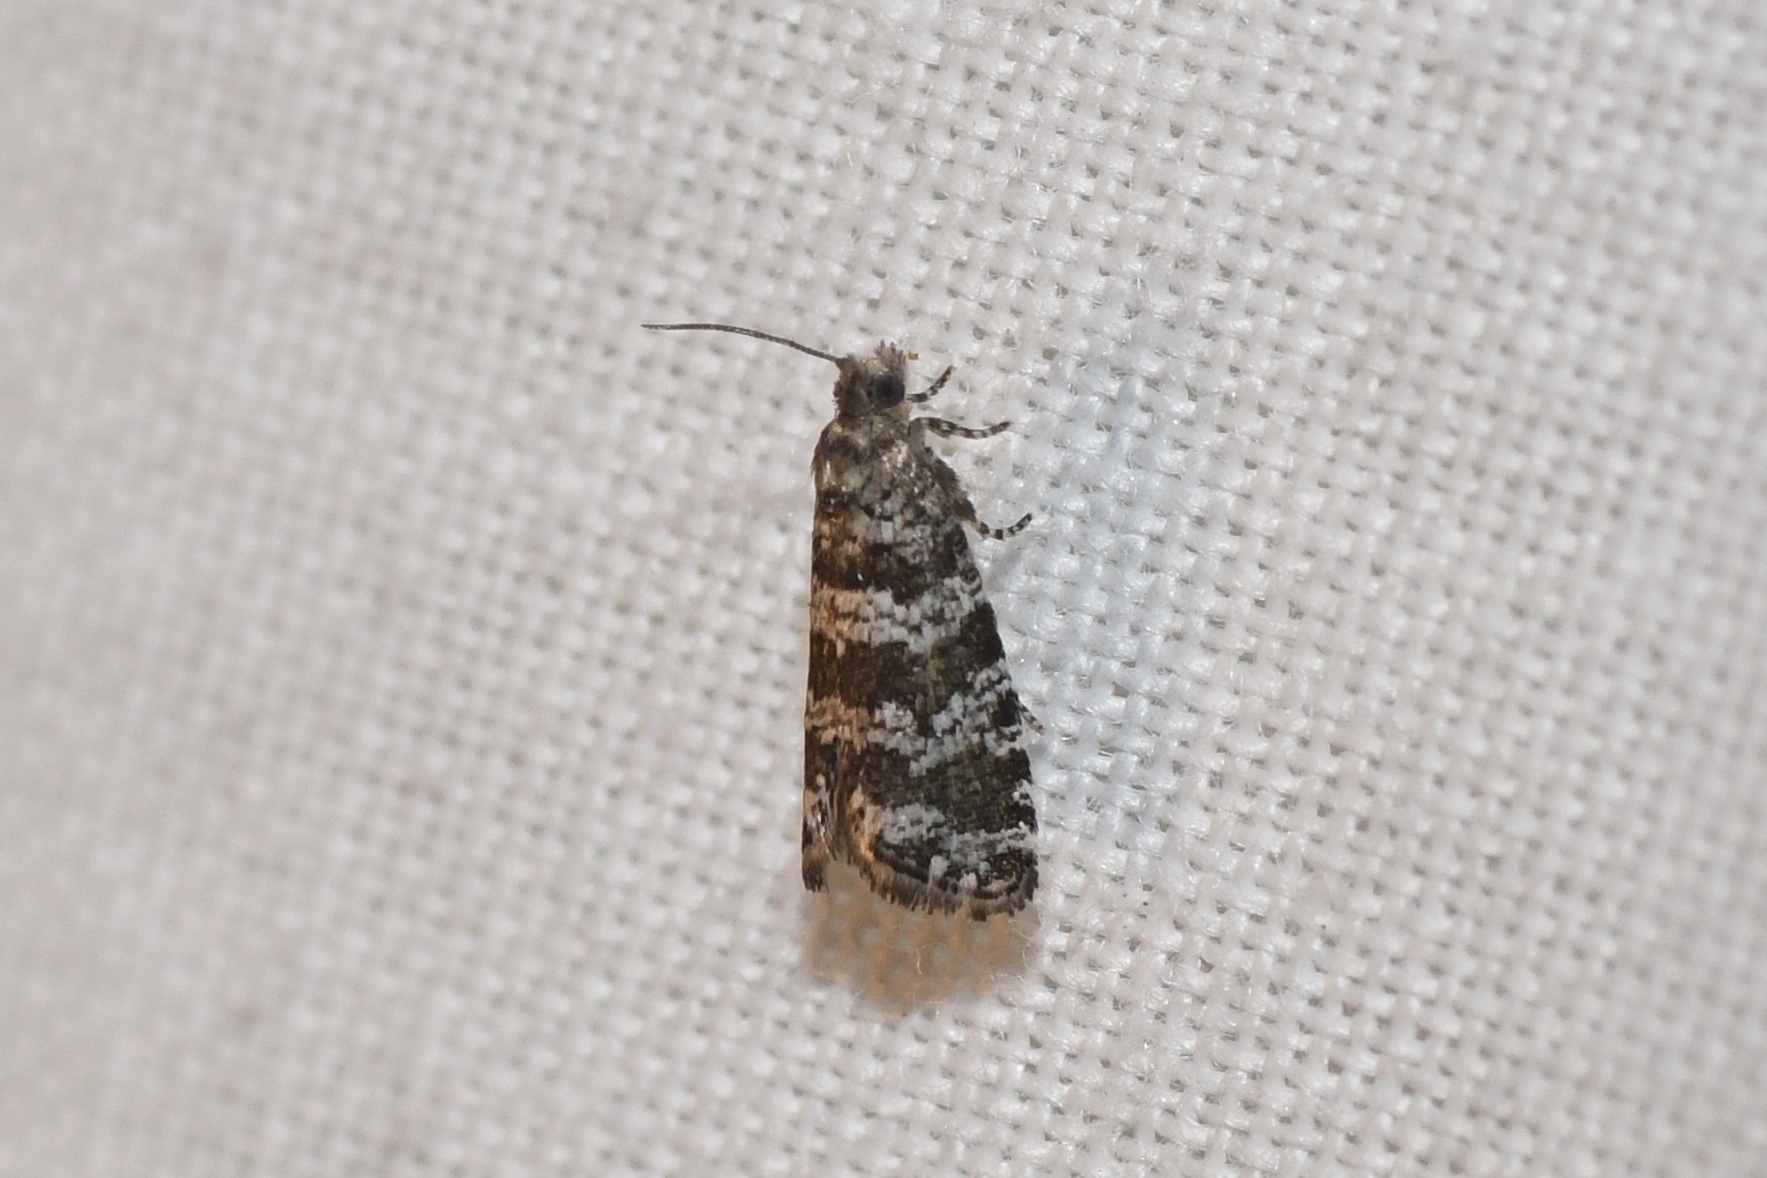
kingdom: Animalia
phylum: Arthropoda
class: Insecta
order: Lepidoptera
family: Tortricidae
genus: Taniva
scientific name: Taniva albolineana
